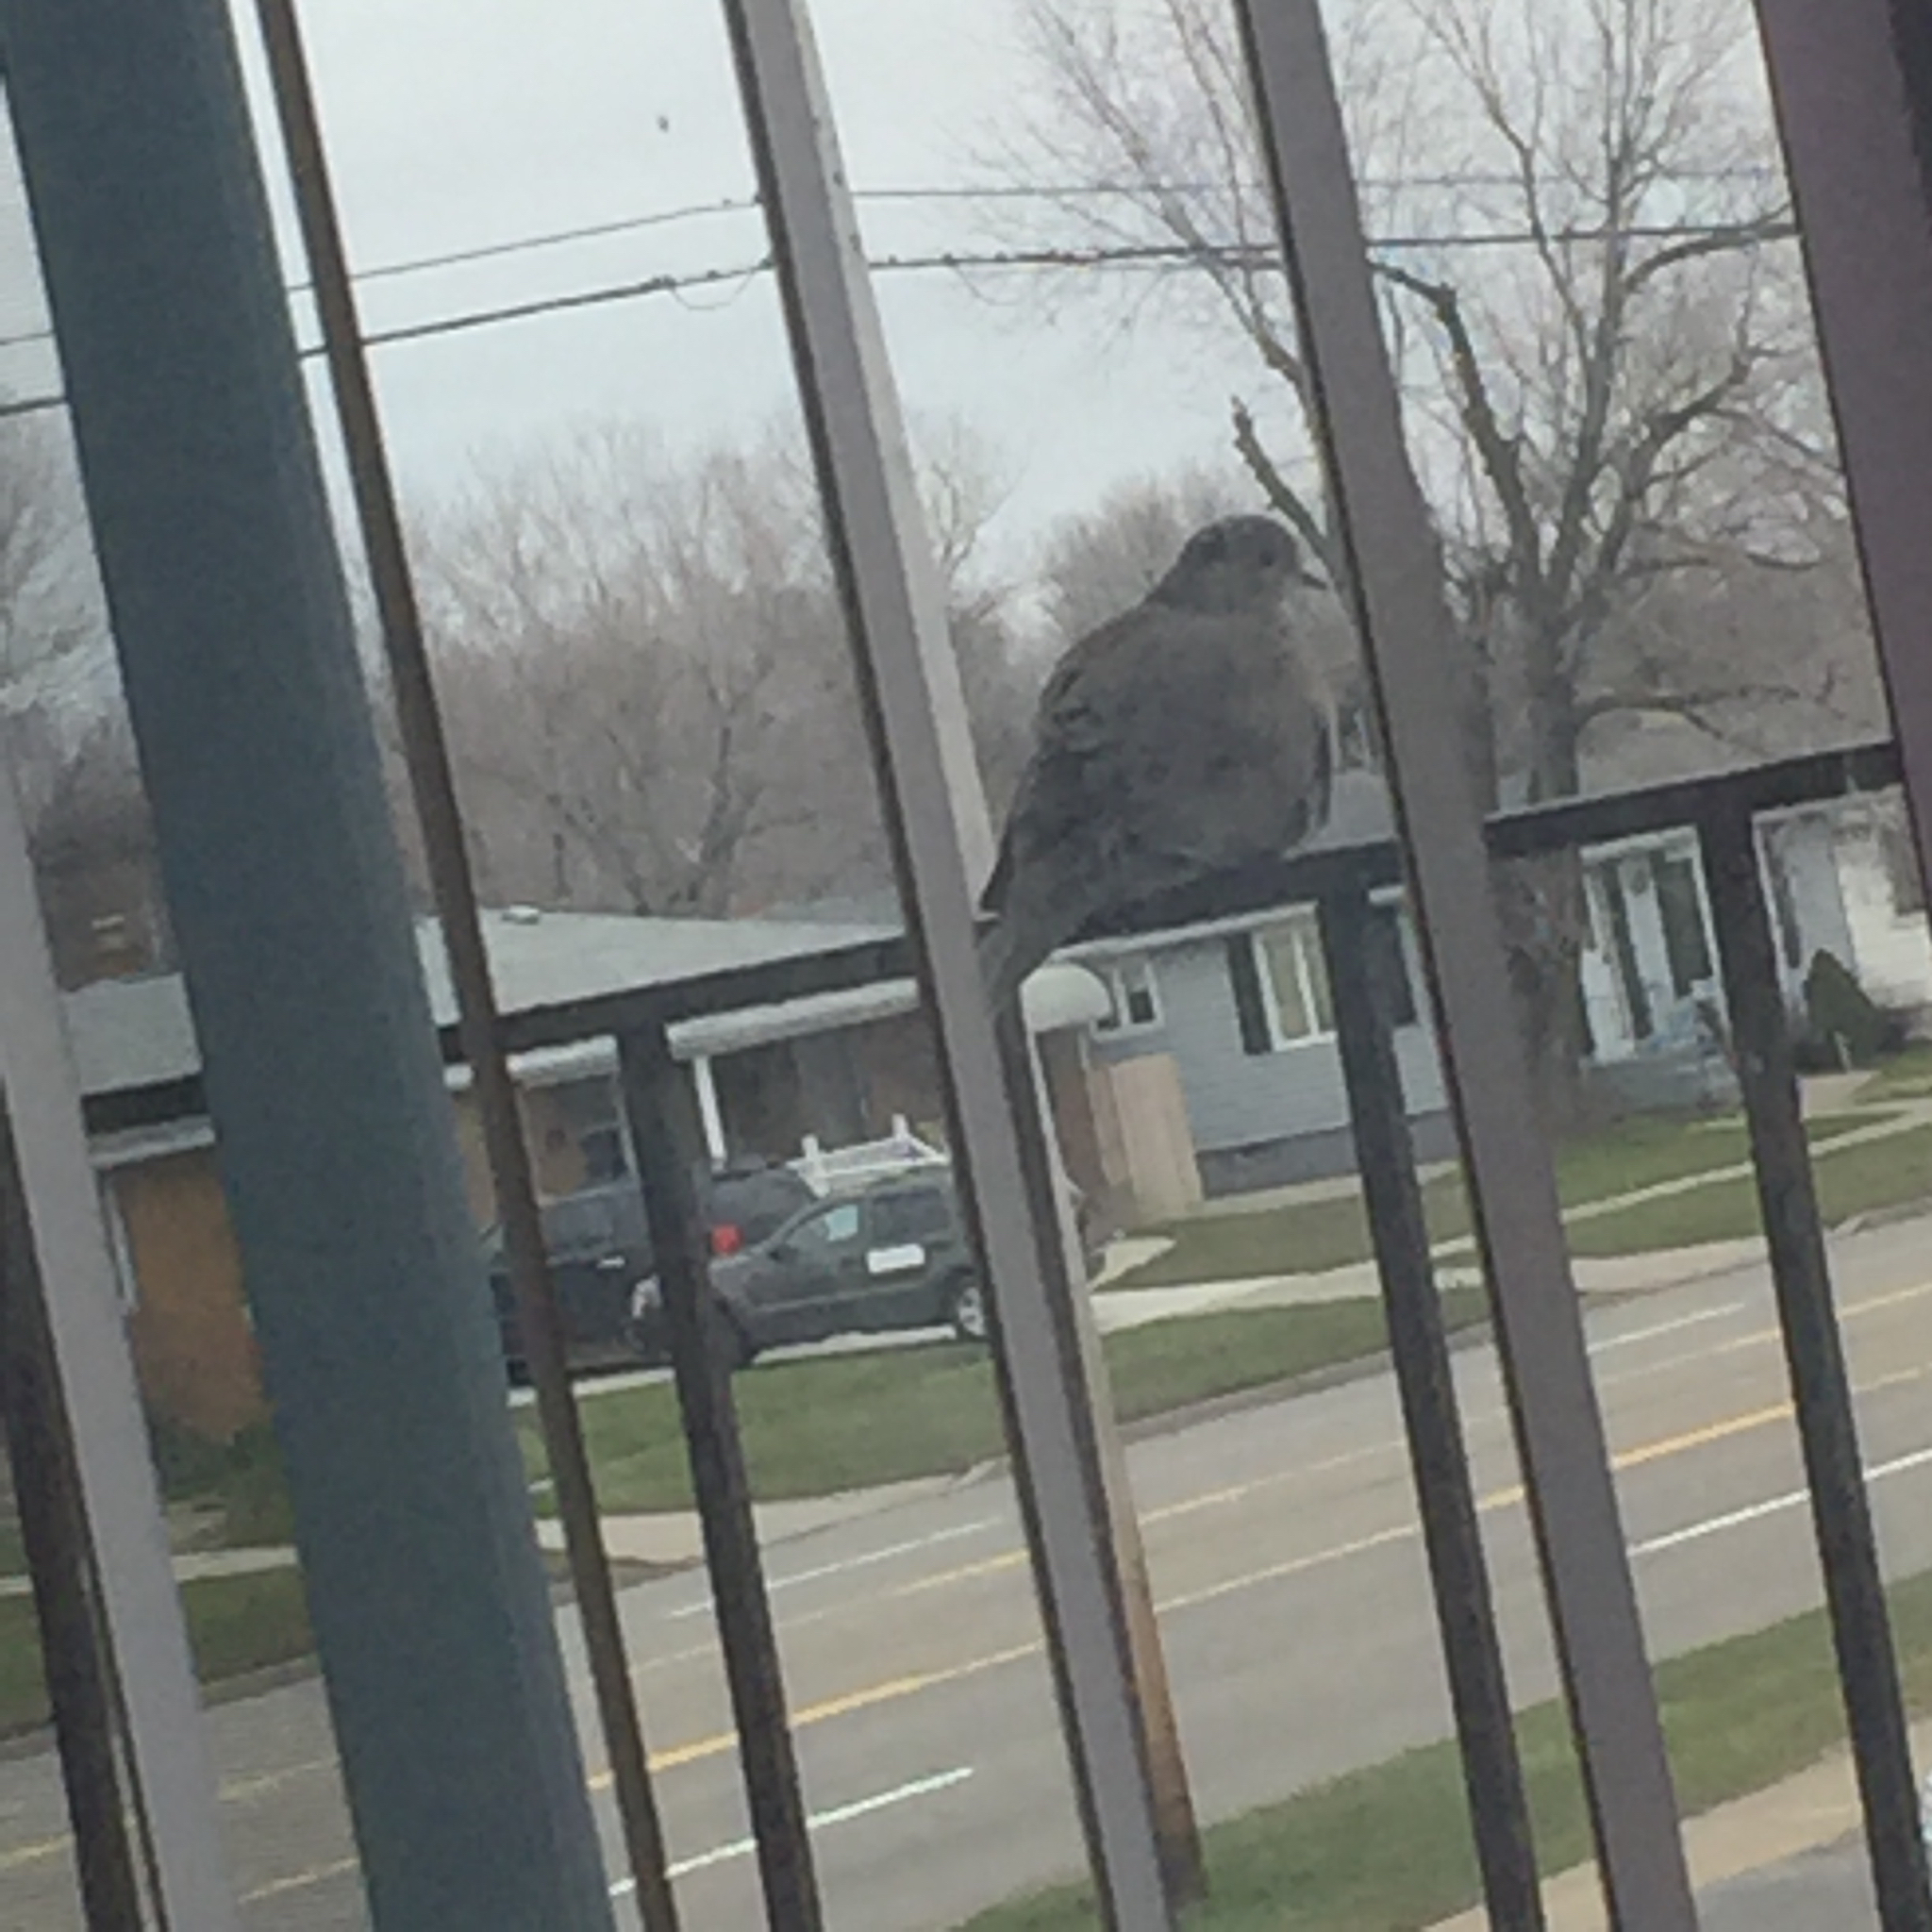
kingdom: Animalia
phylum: Chordata
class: Aves
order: Columbiformes
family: Columbidae
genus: Zenaida
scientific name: Zenaida macroura
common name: Mourning dove
